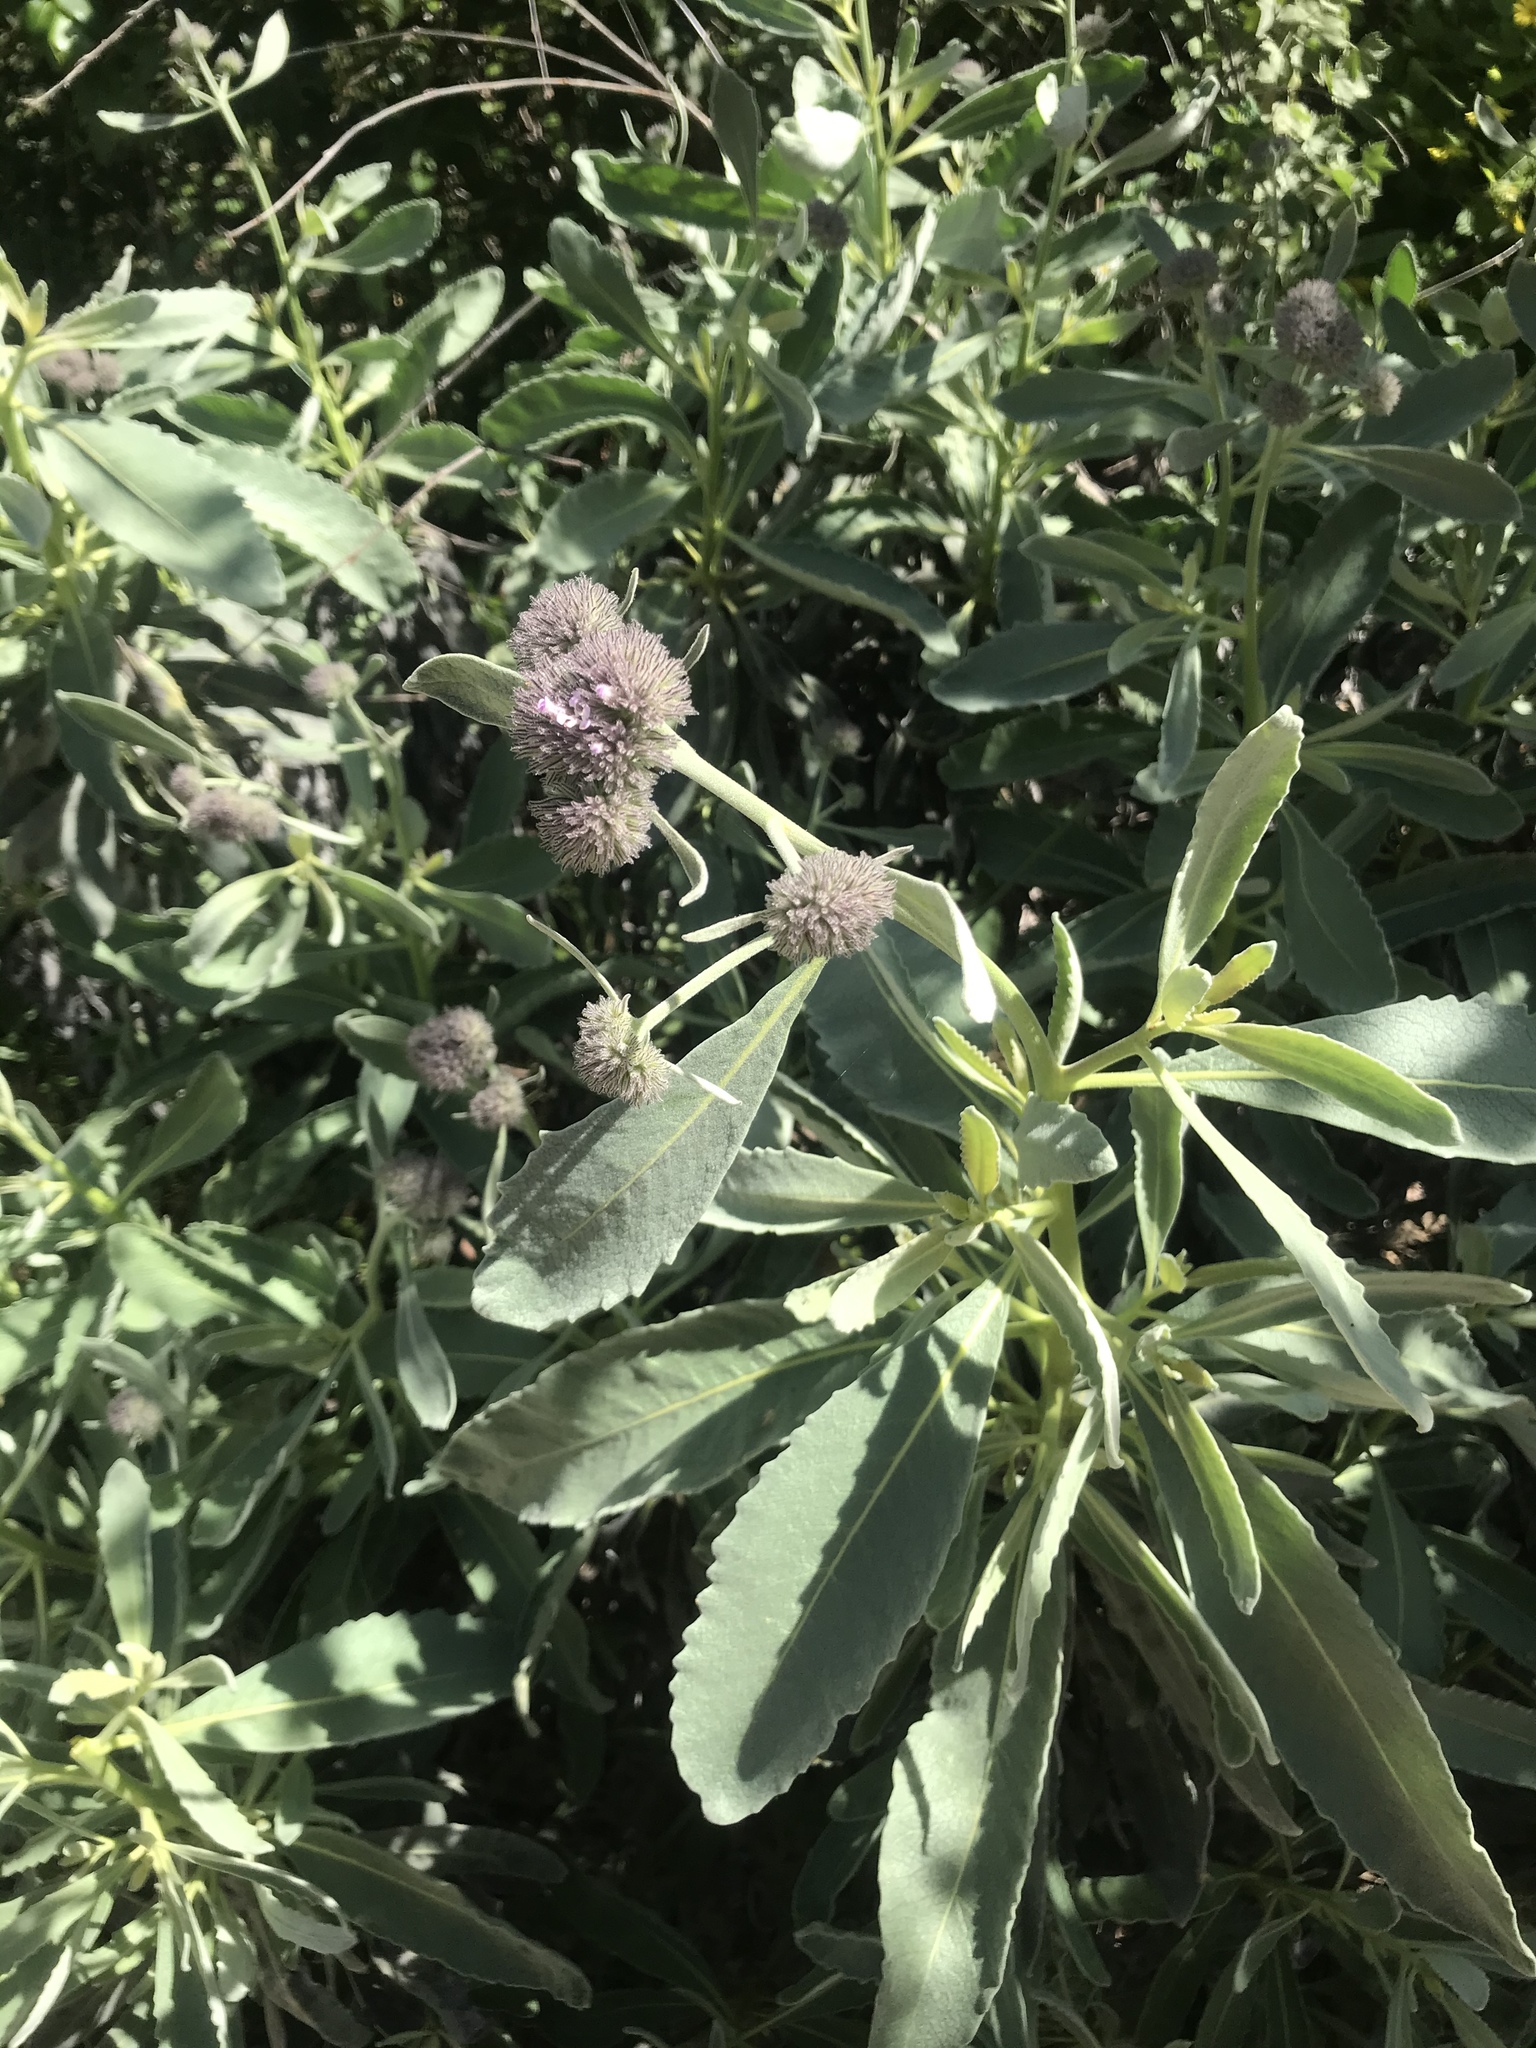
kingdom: Plantae
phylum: Tracheophyta
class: Magnoliopsida
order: Boraginales
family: Namaceae
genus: Eriodictyon
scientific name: Eriodictyon traskiae
